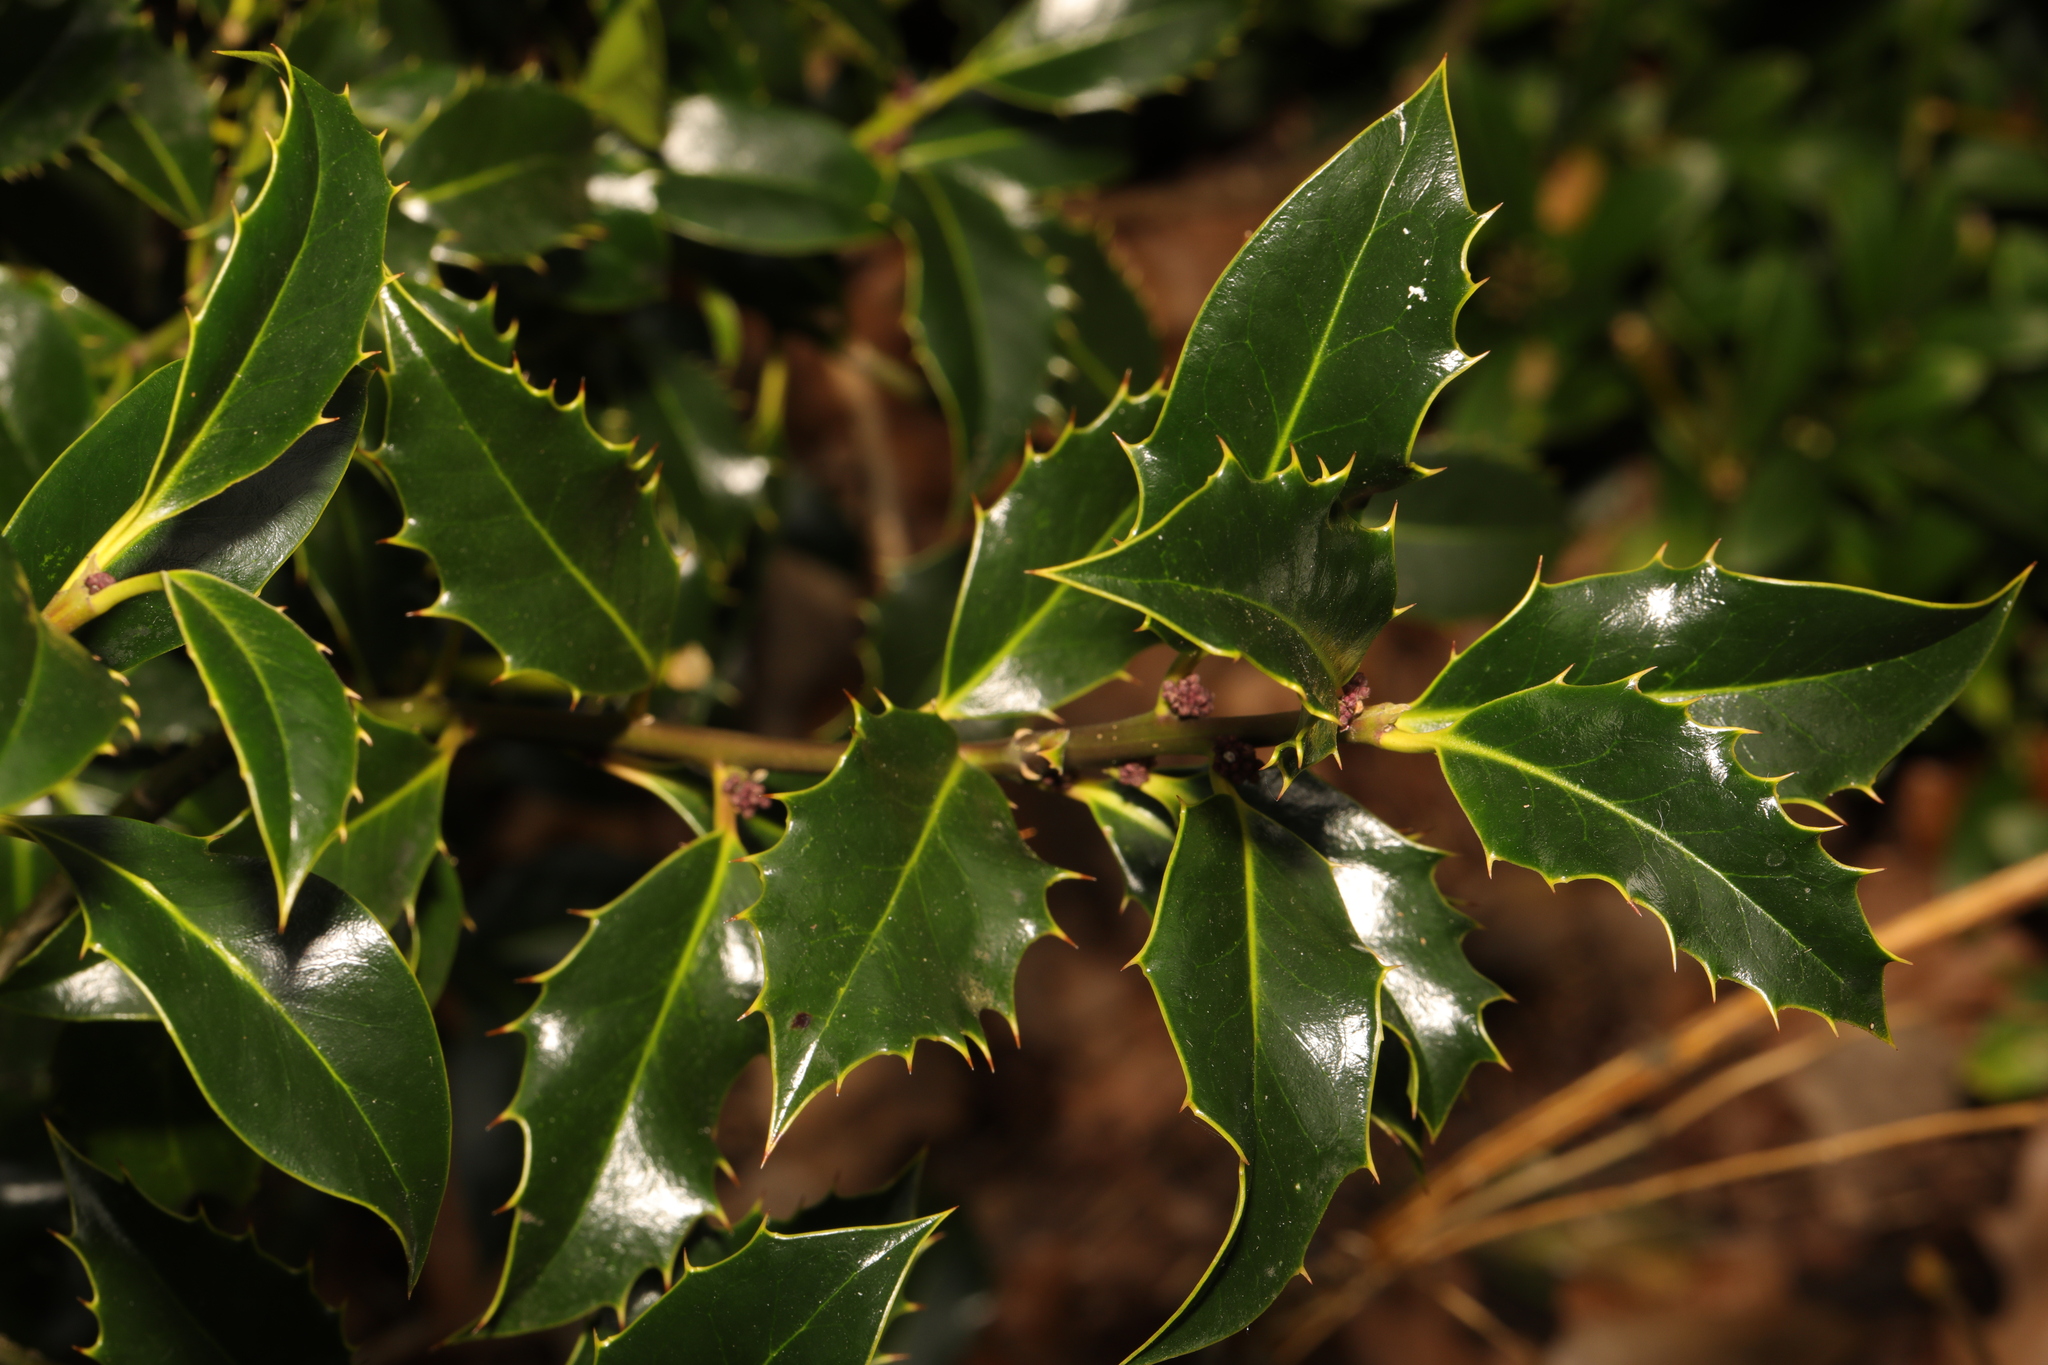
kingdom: Plantae
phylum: Tracheophyta
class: Magnoliopsida
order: Aquifoliales
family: Aquifoliaceae
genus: Ilex
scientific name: Ilex aquifolium
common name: English holly
